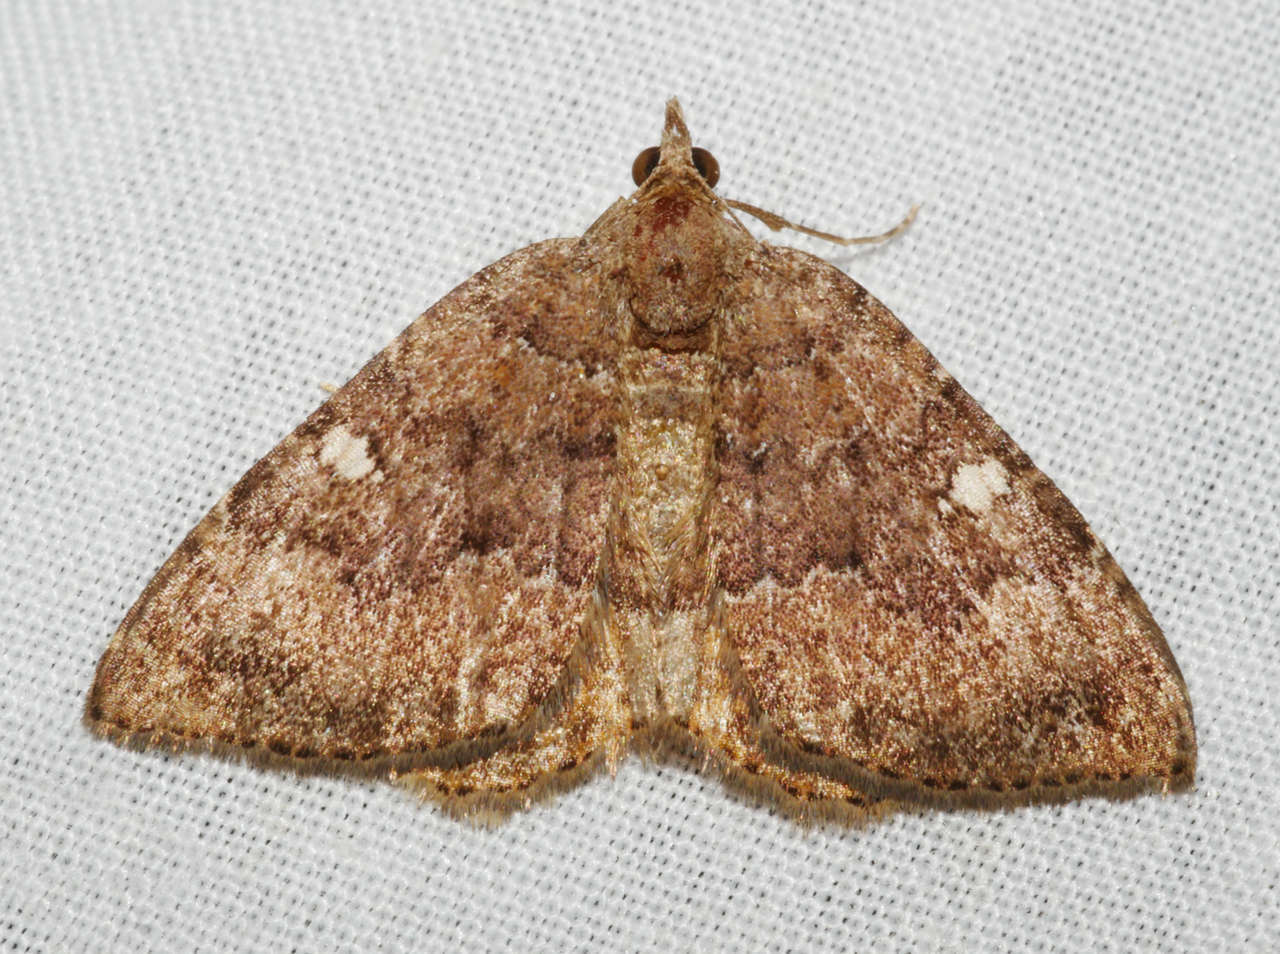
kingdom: Animalia
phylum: Arthropoda
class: Insecta
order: Lepidoptera
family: Geometridae
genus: Chrysolarentia
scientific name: Chrysolarentia heteroleuca
